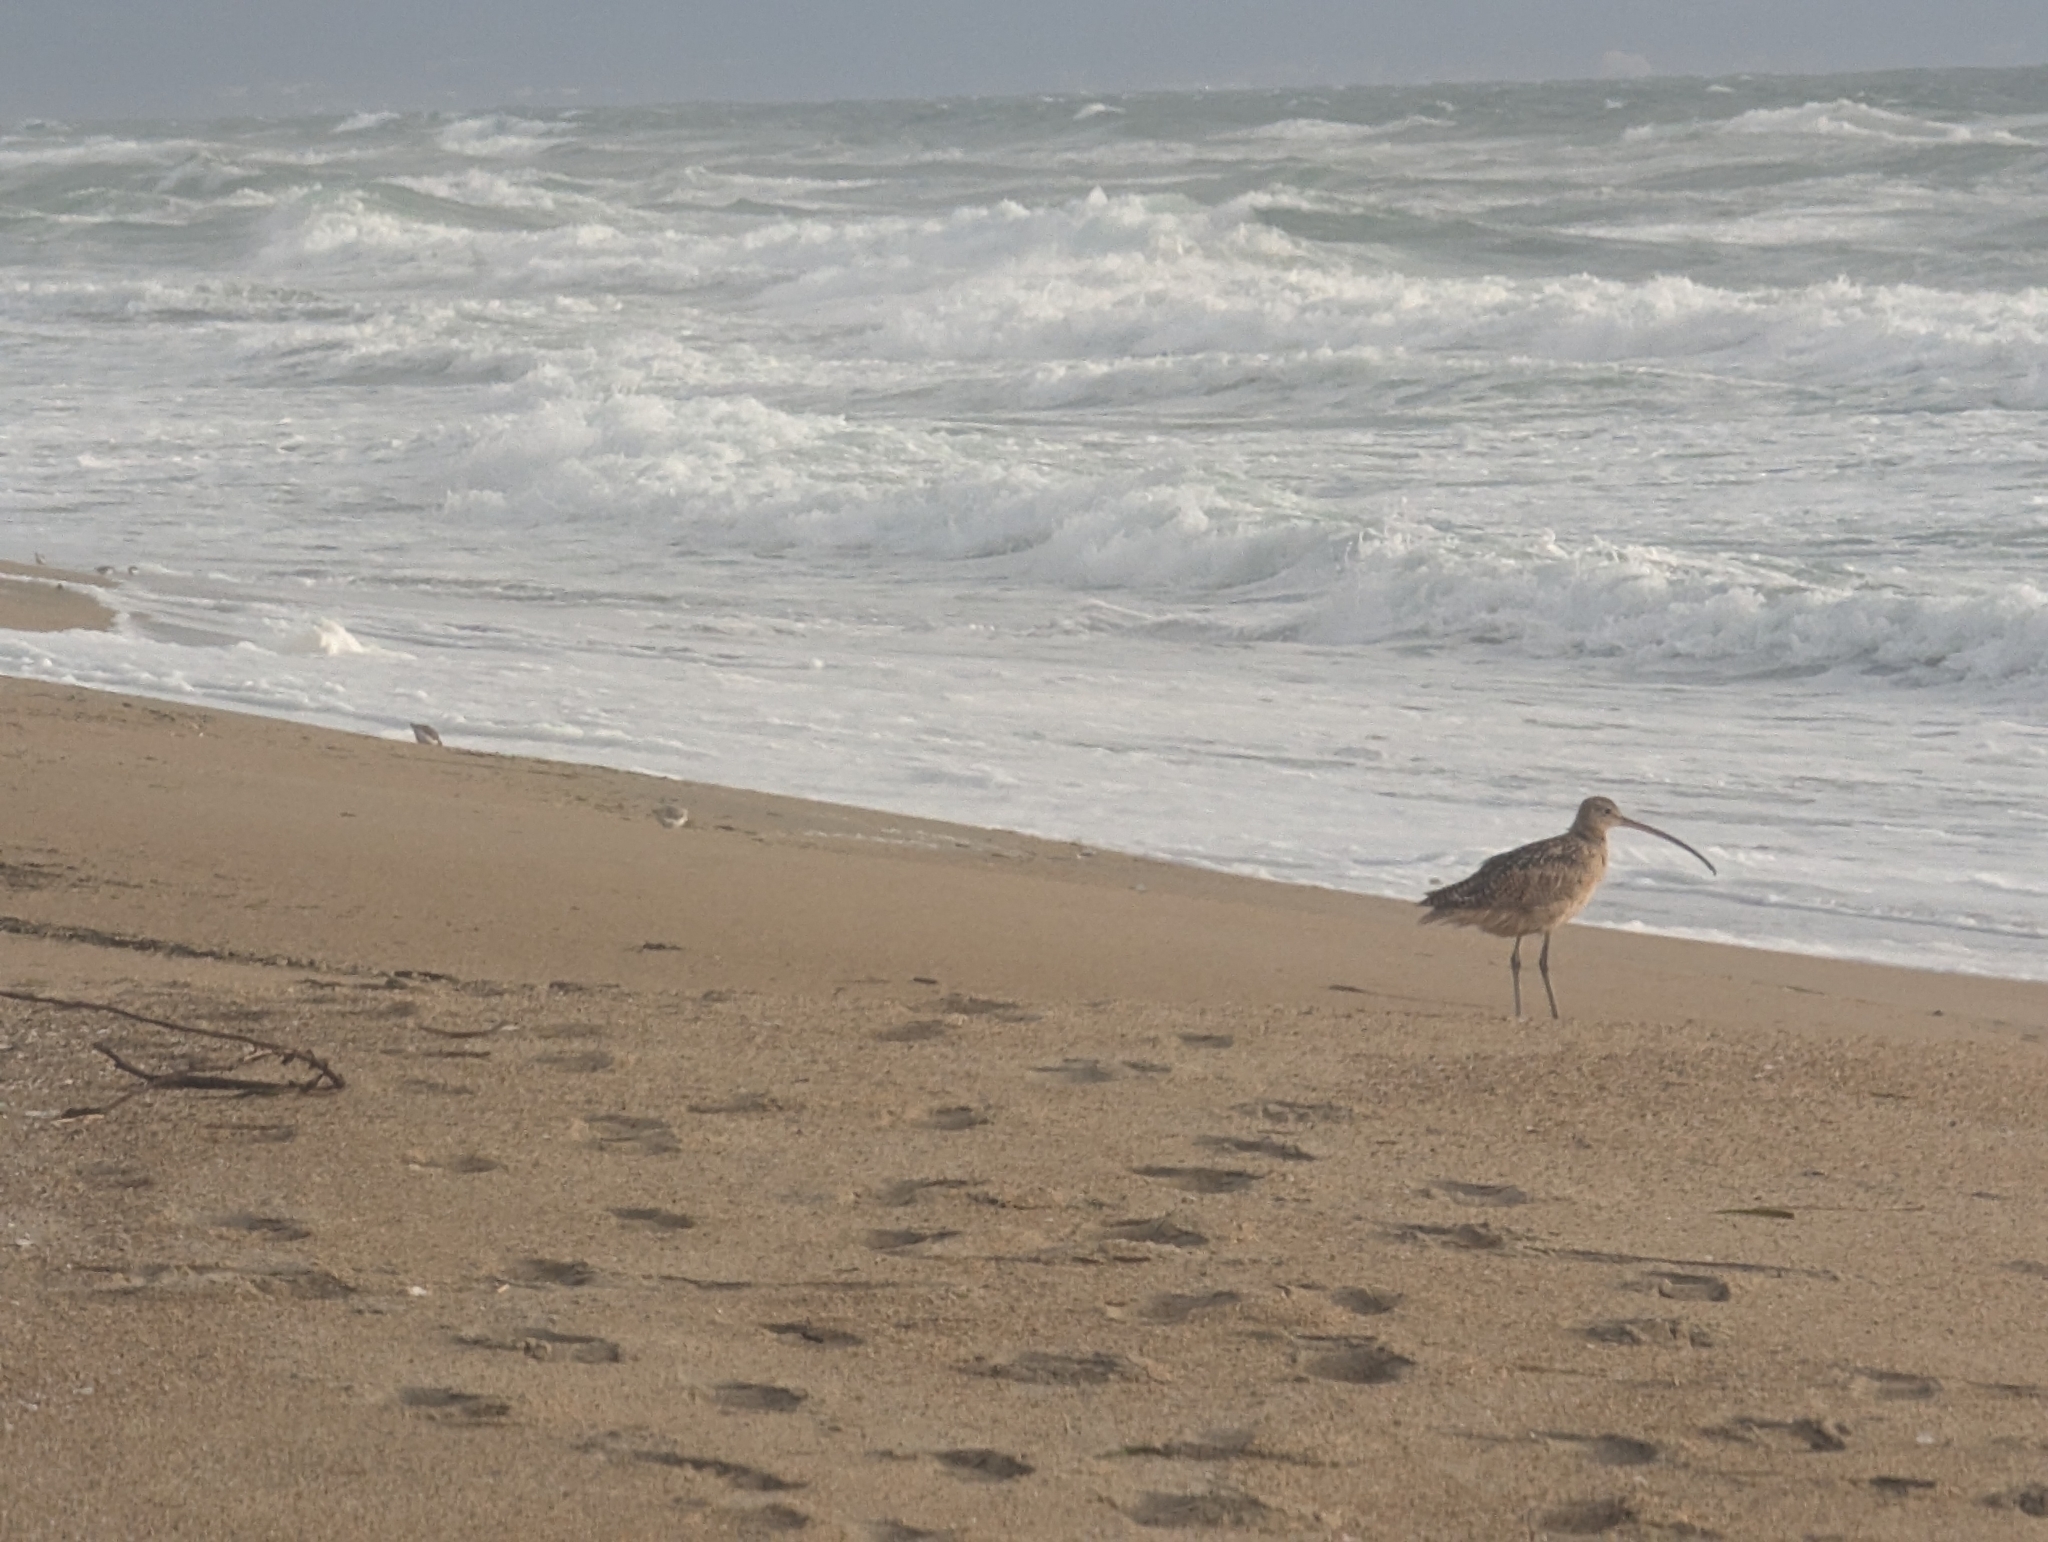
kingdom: Animalia
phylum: Chordata
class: Aves
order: Charadriiformes
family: Scolopacidae
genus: Numenius
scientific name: Numenius americanus
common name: Long-billed curlew
